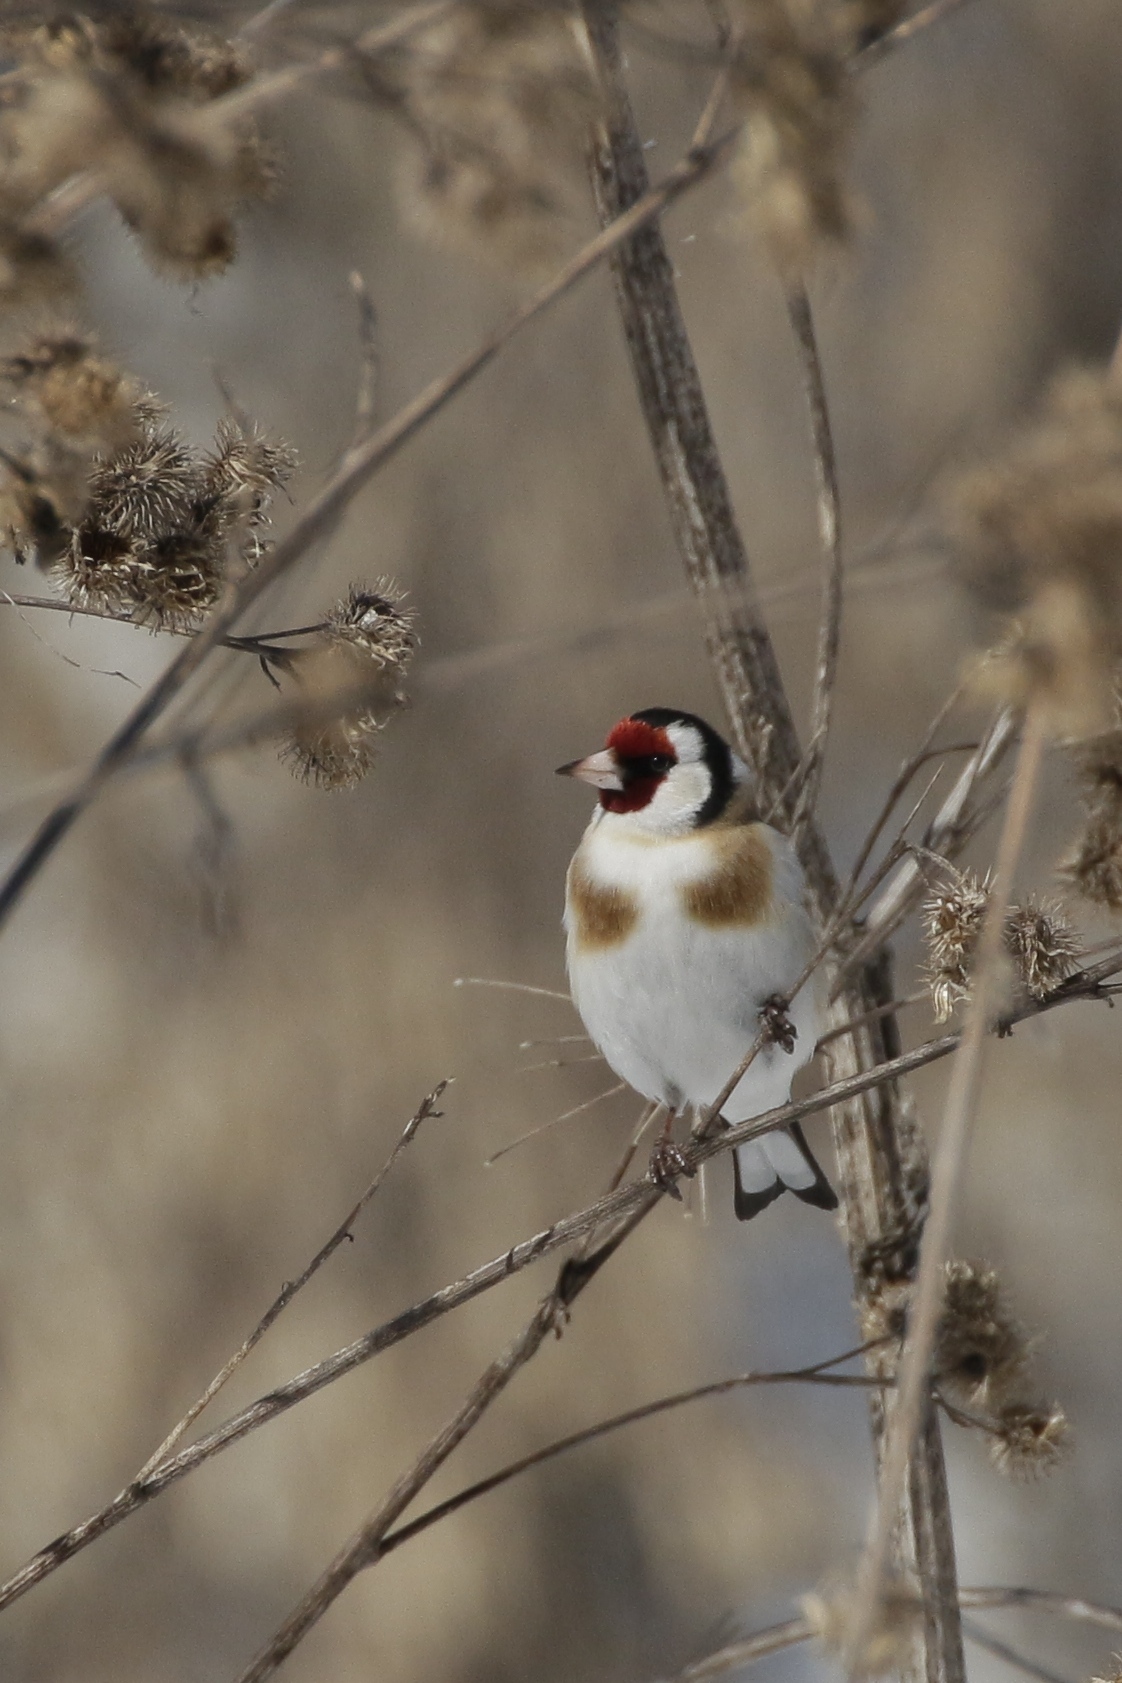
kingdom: Animalia
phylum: Chordata
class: Aves
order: Passeriformes
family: Fringillidae
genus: Carduelis
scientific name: Carduelis carduelis
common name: European goldfinch
